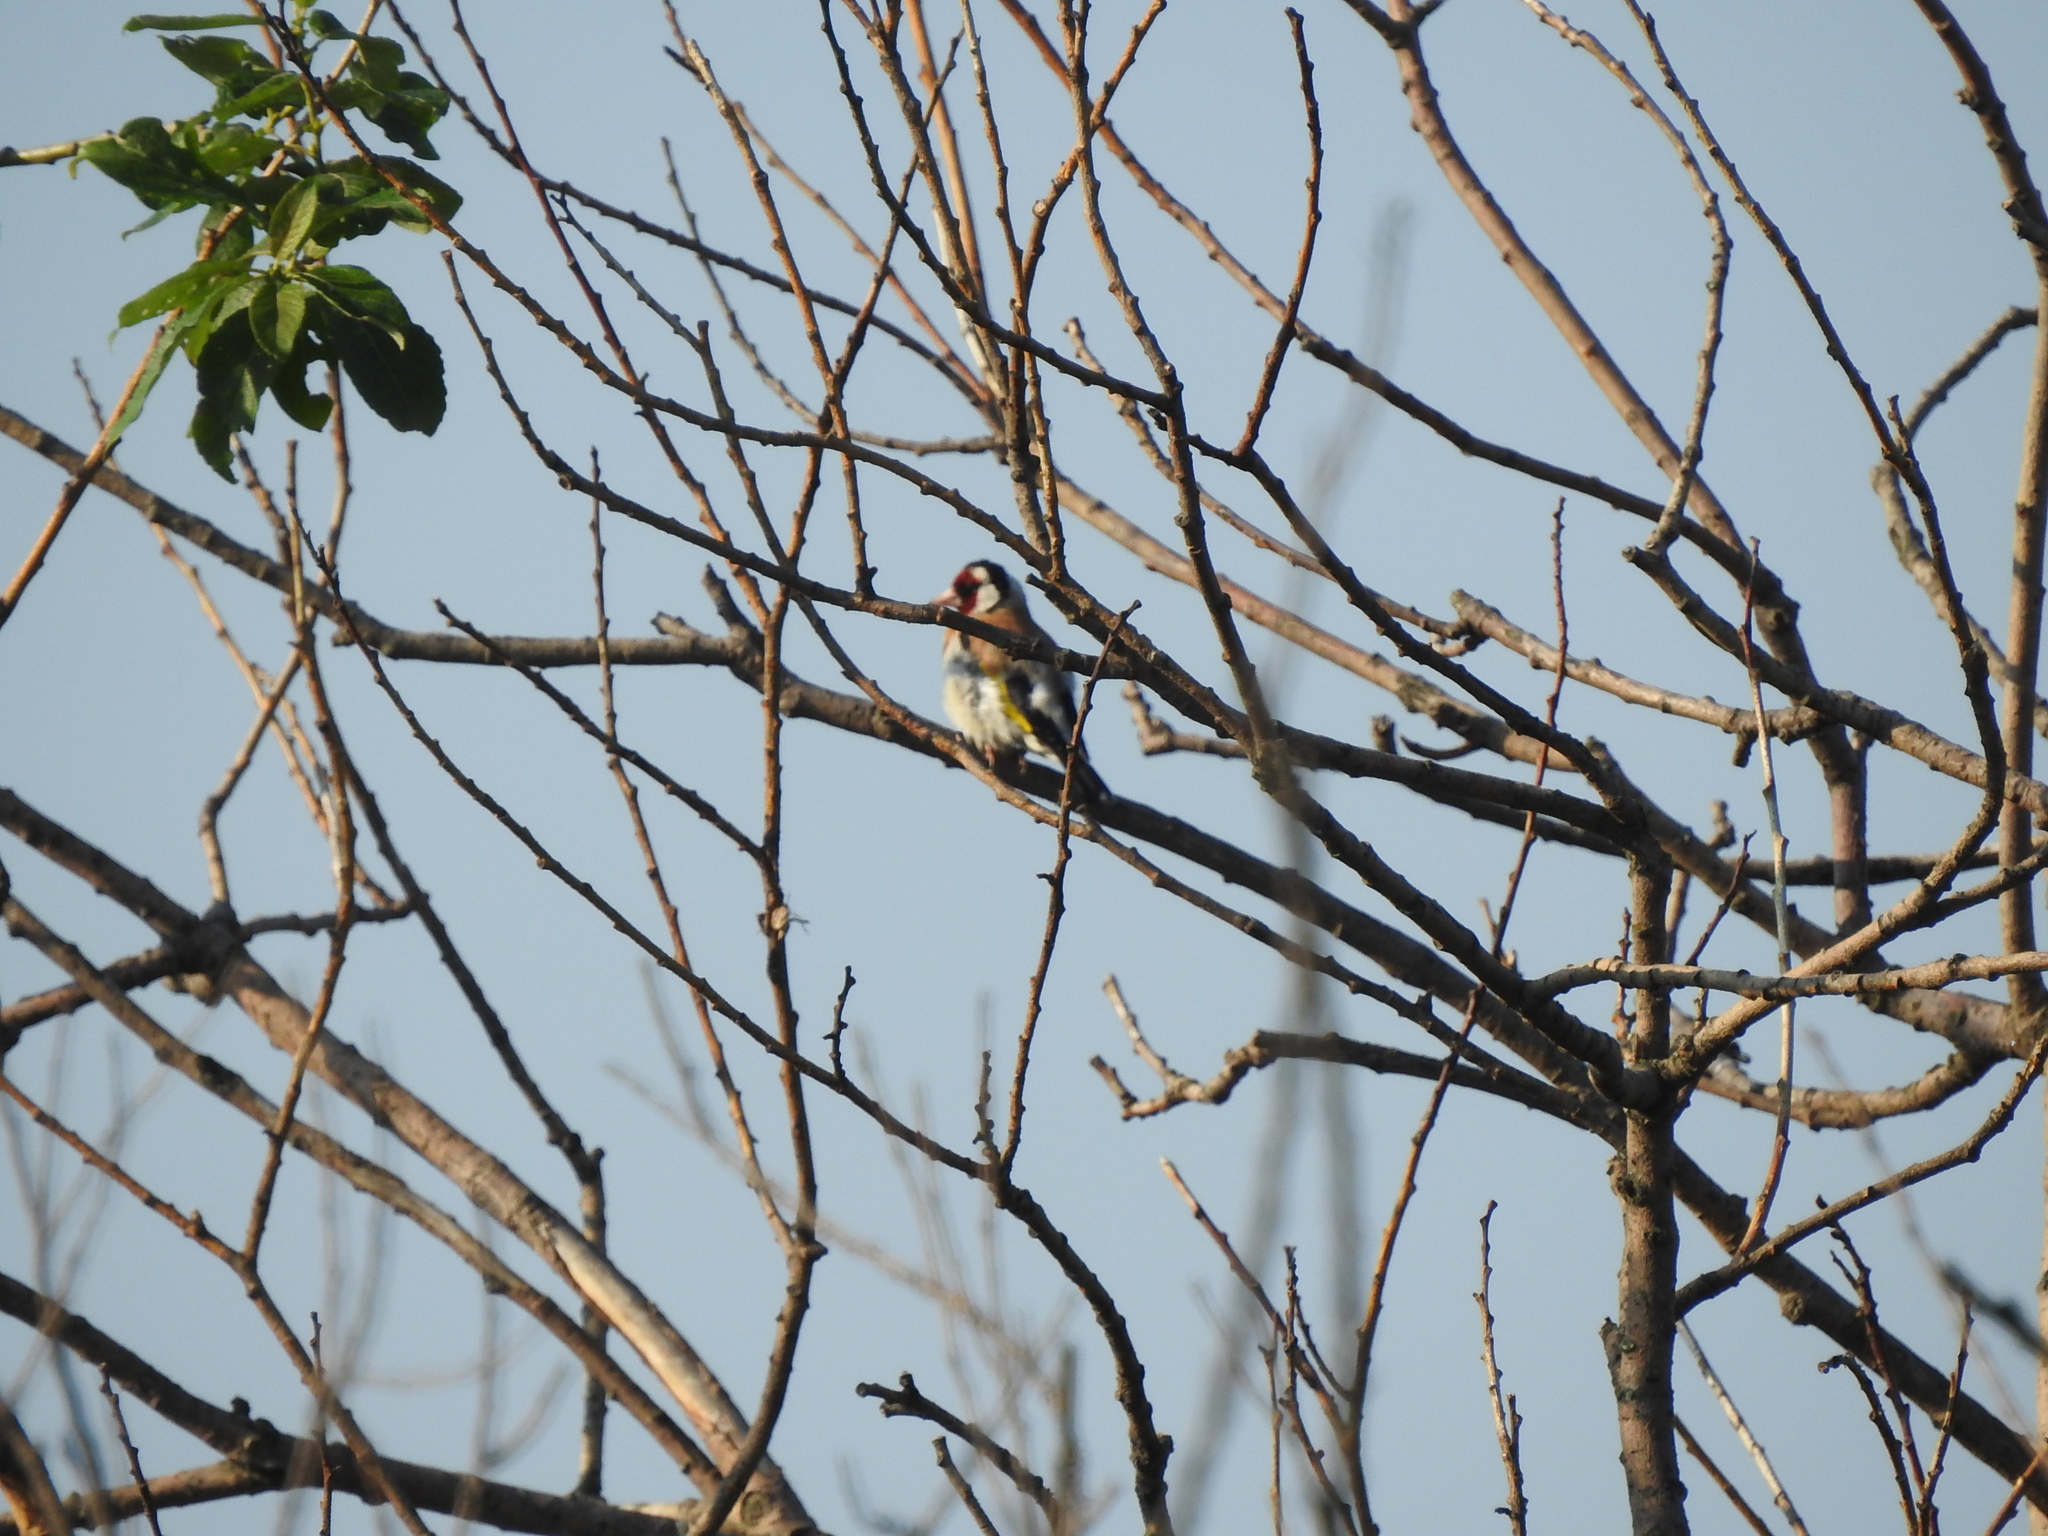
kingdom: Animalia
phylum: Chordata
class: Aves
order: Passeriformes
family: Fringillidae
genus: Carduelis
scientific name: Carduelis carduelis
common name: European goldfinch
